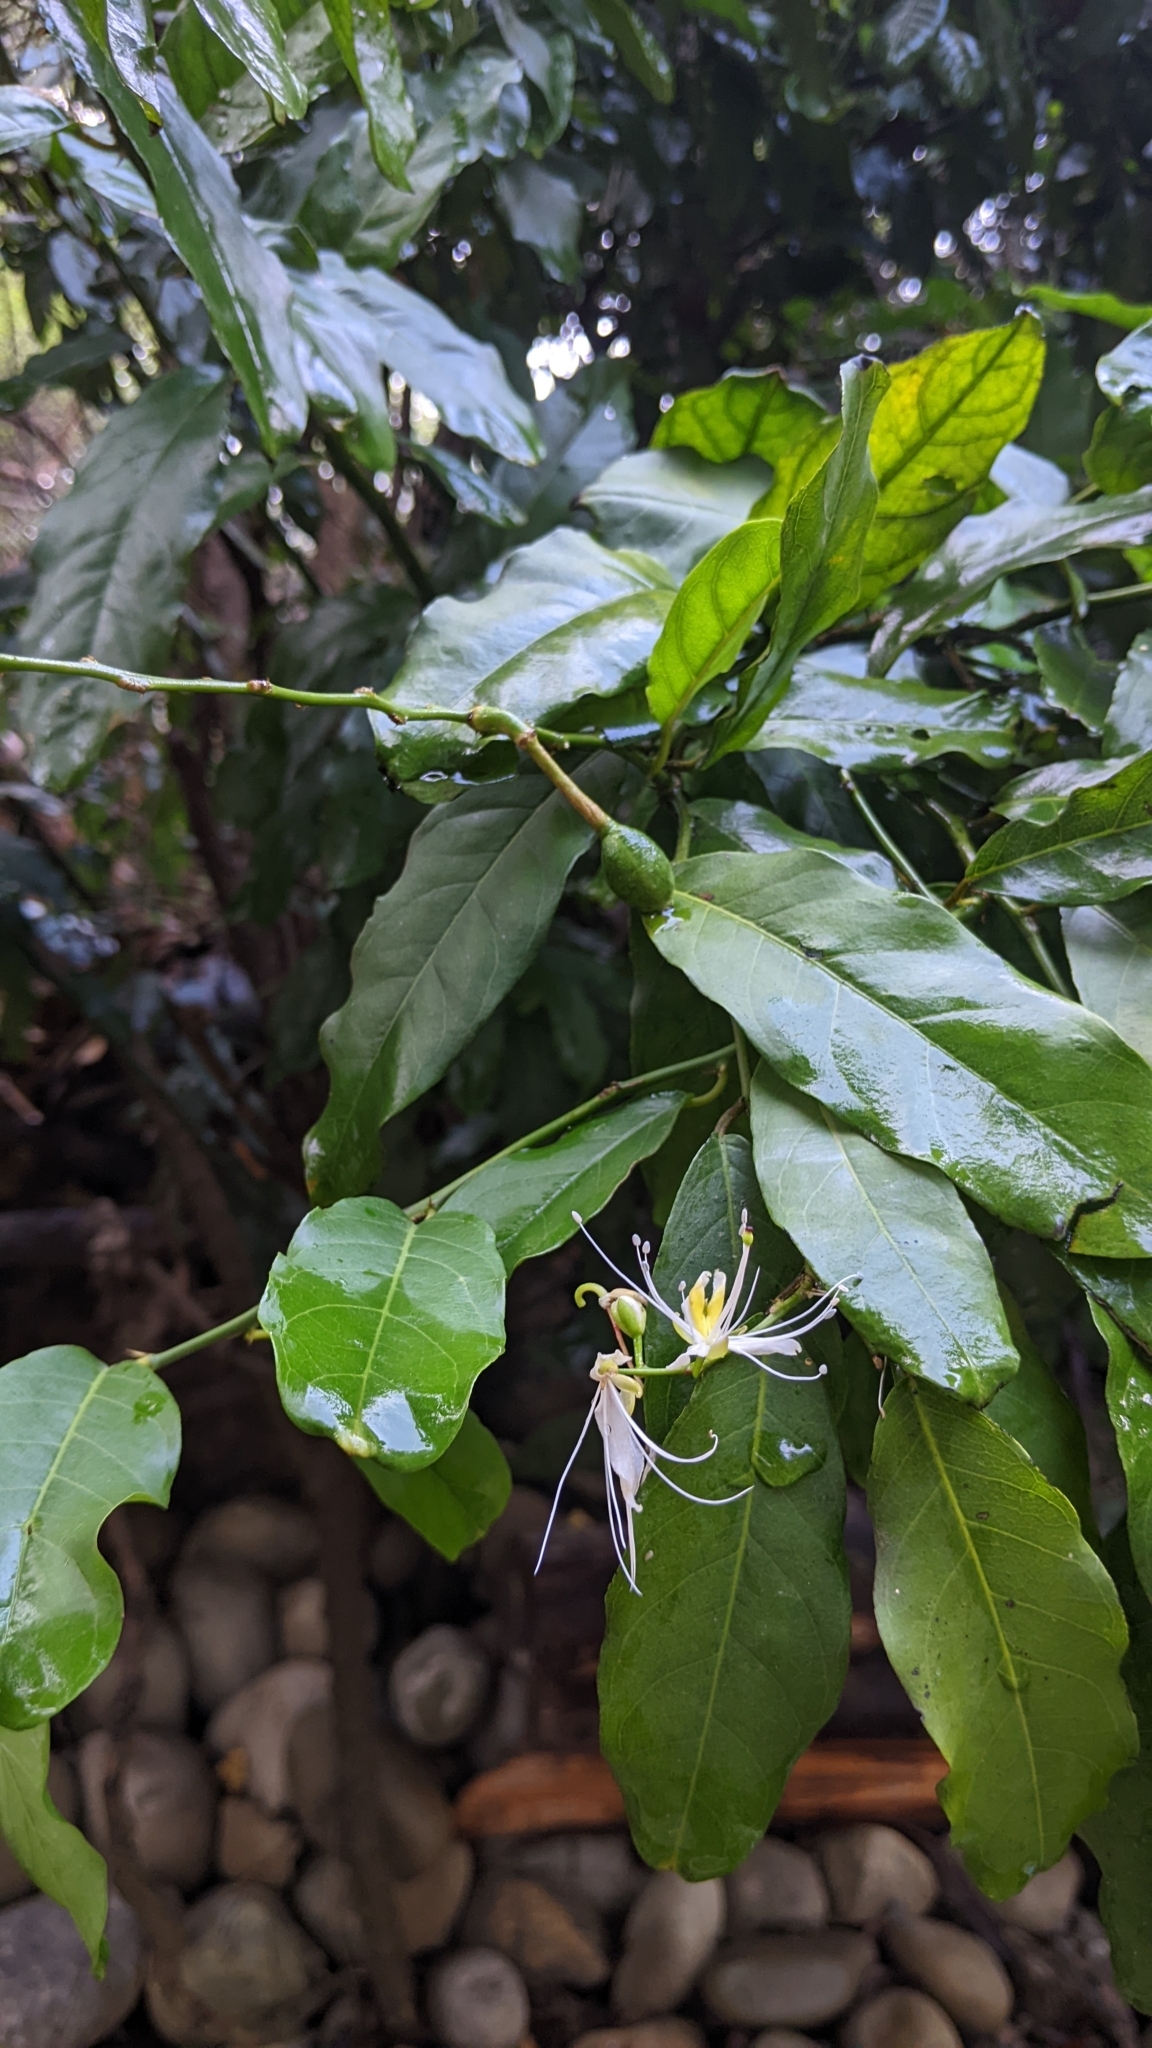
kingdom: Plantae
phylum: Tracheophyta
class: Magnoliopsida
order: Brassicales
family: Capparaceae
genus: Capparis
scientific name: Capparis micracantha
